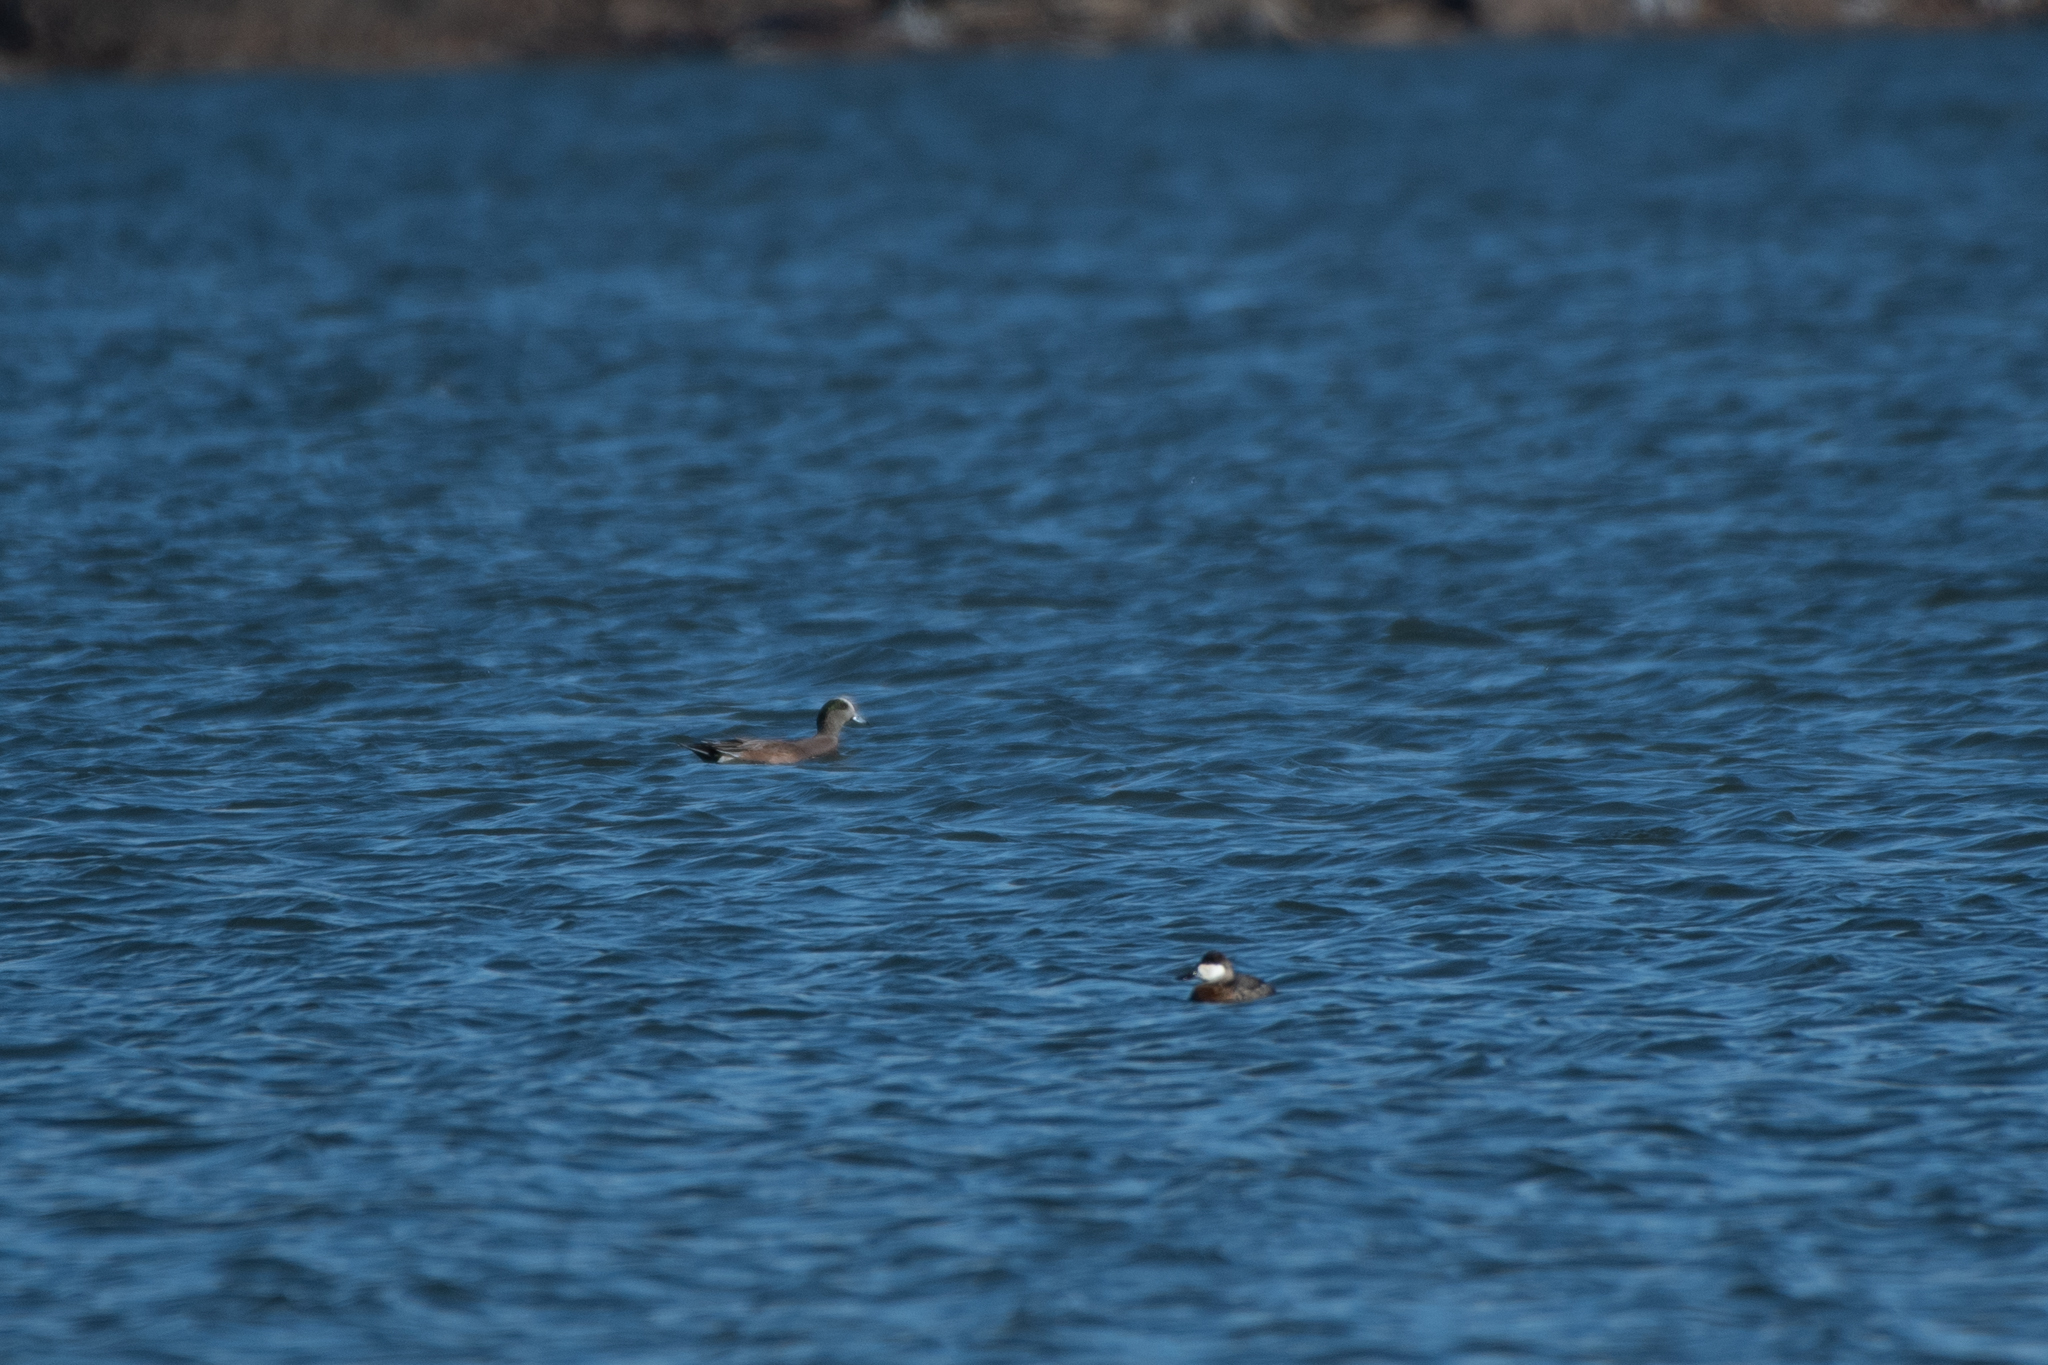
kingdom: Animalia
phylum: Chordata
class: Aves
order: Anseriformes
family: Anatidae
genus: Mareca
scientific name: Mareca americana
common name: American wigeon
